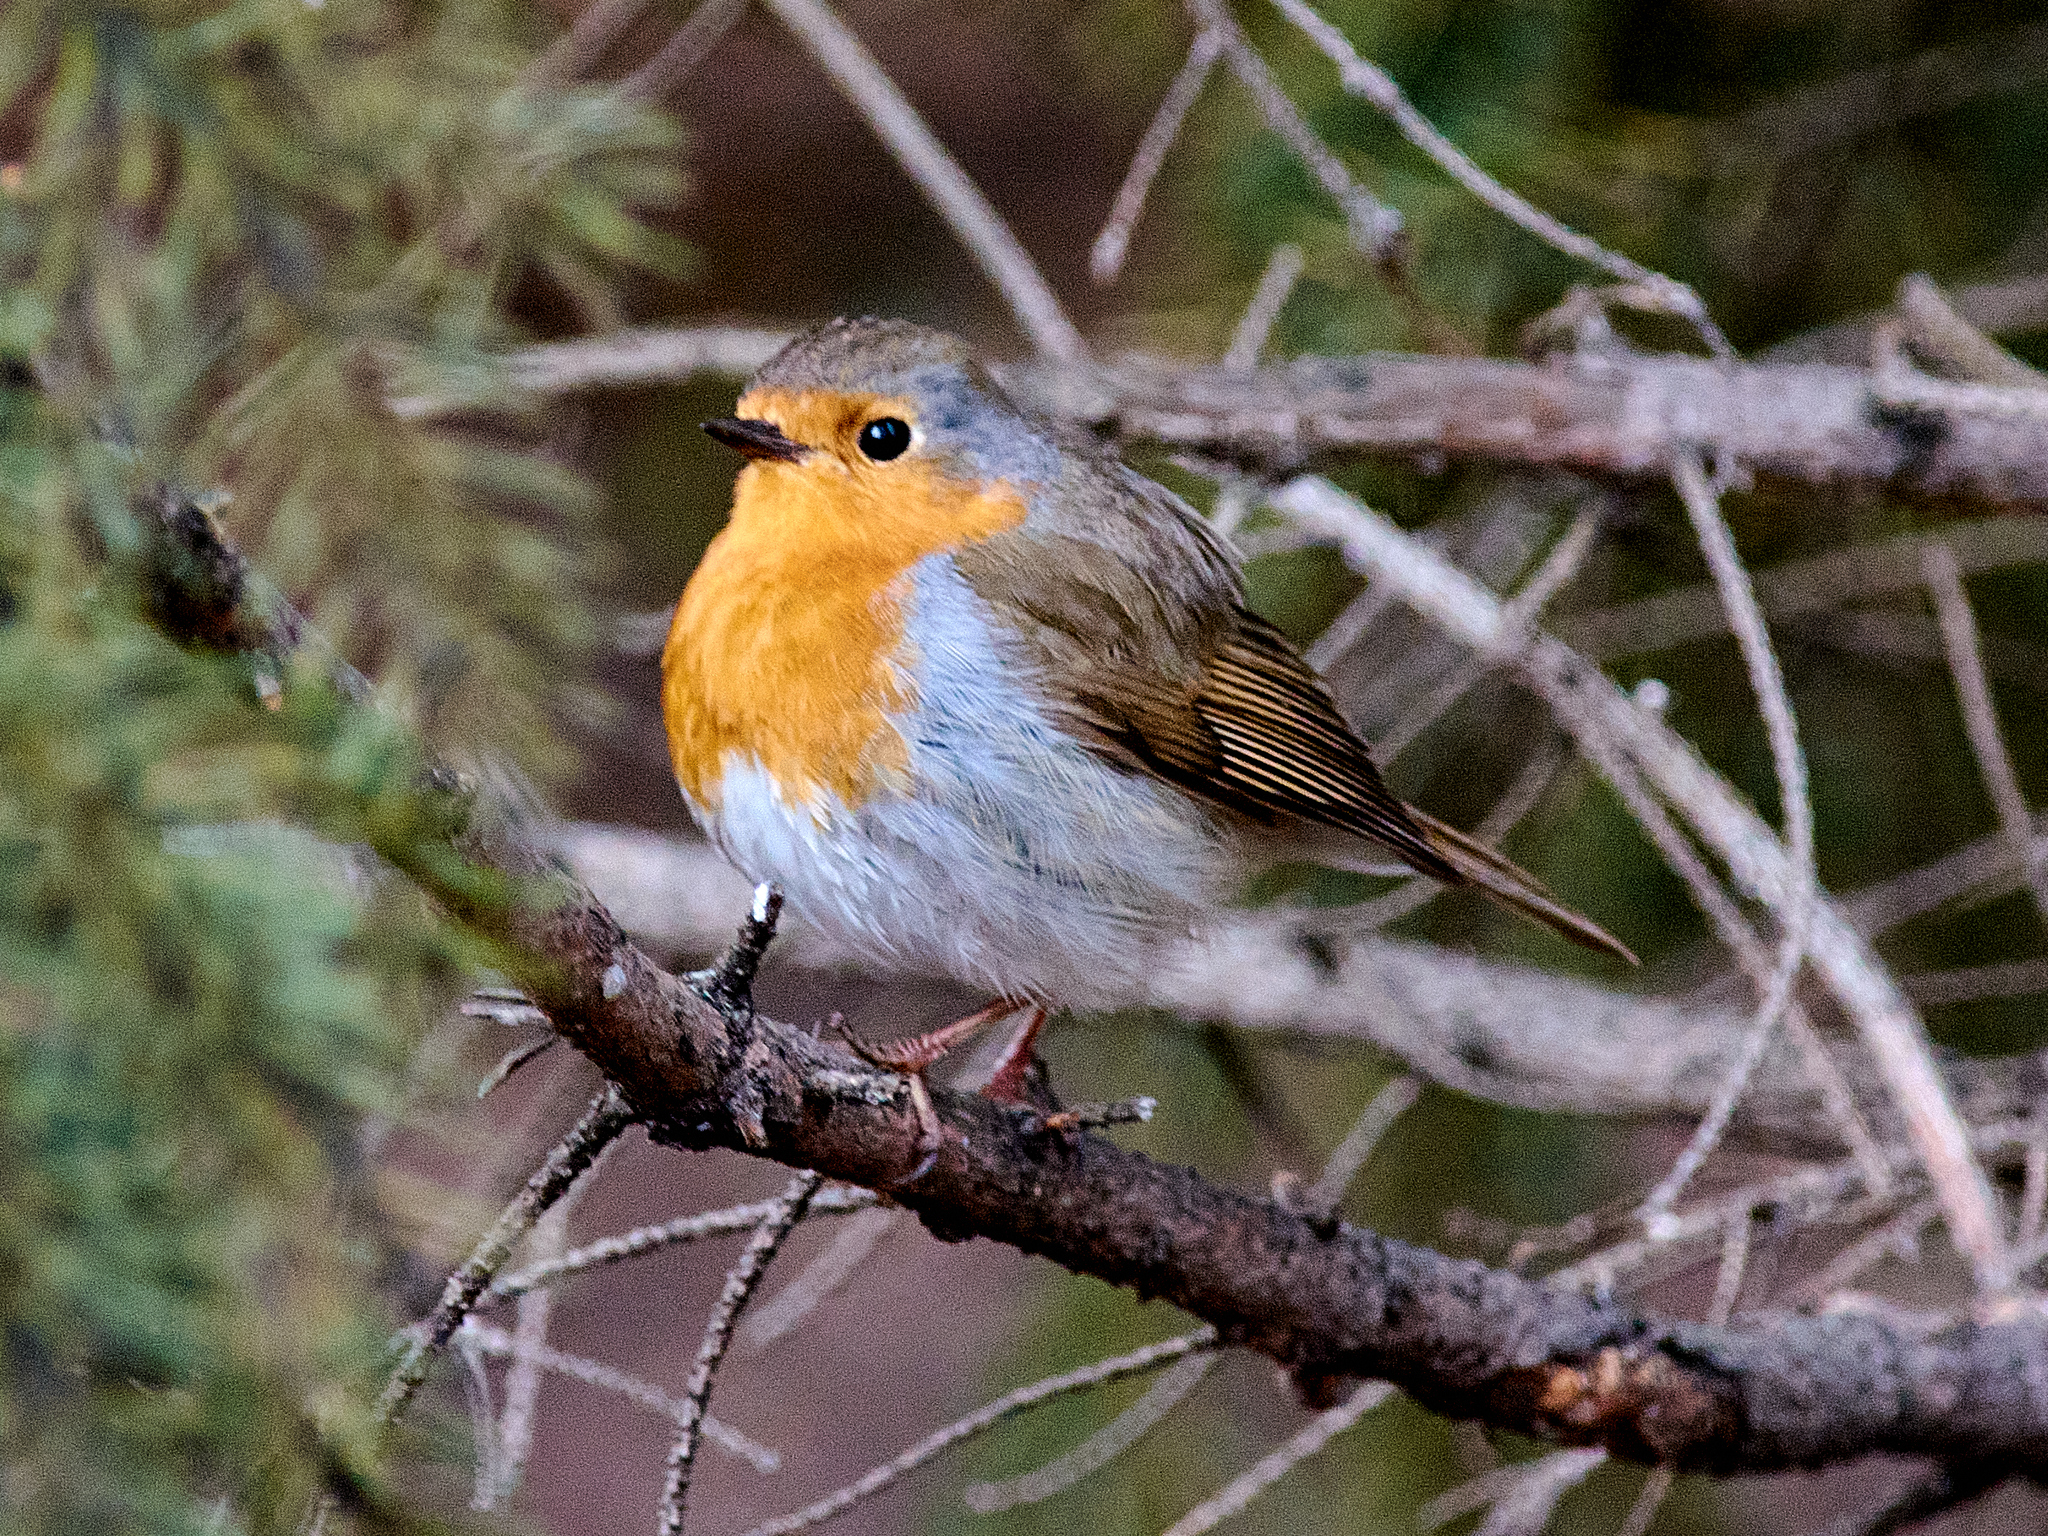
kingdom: Animalia
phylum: Chordata
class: Aves
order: Passeriformes
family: Muscicapidae
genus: Erithacus
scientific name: Erithacus rubecula
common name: European robin
